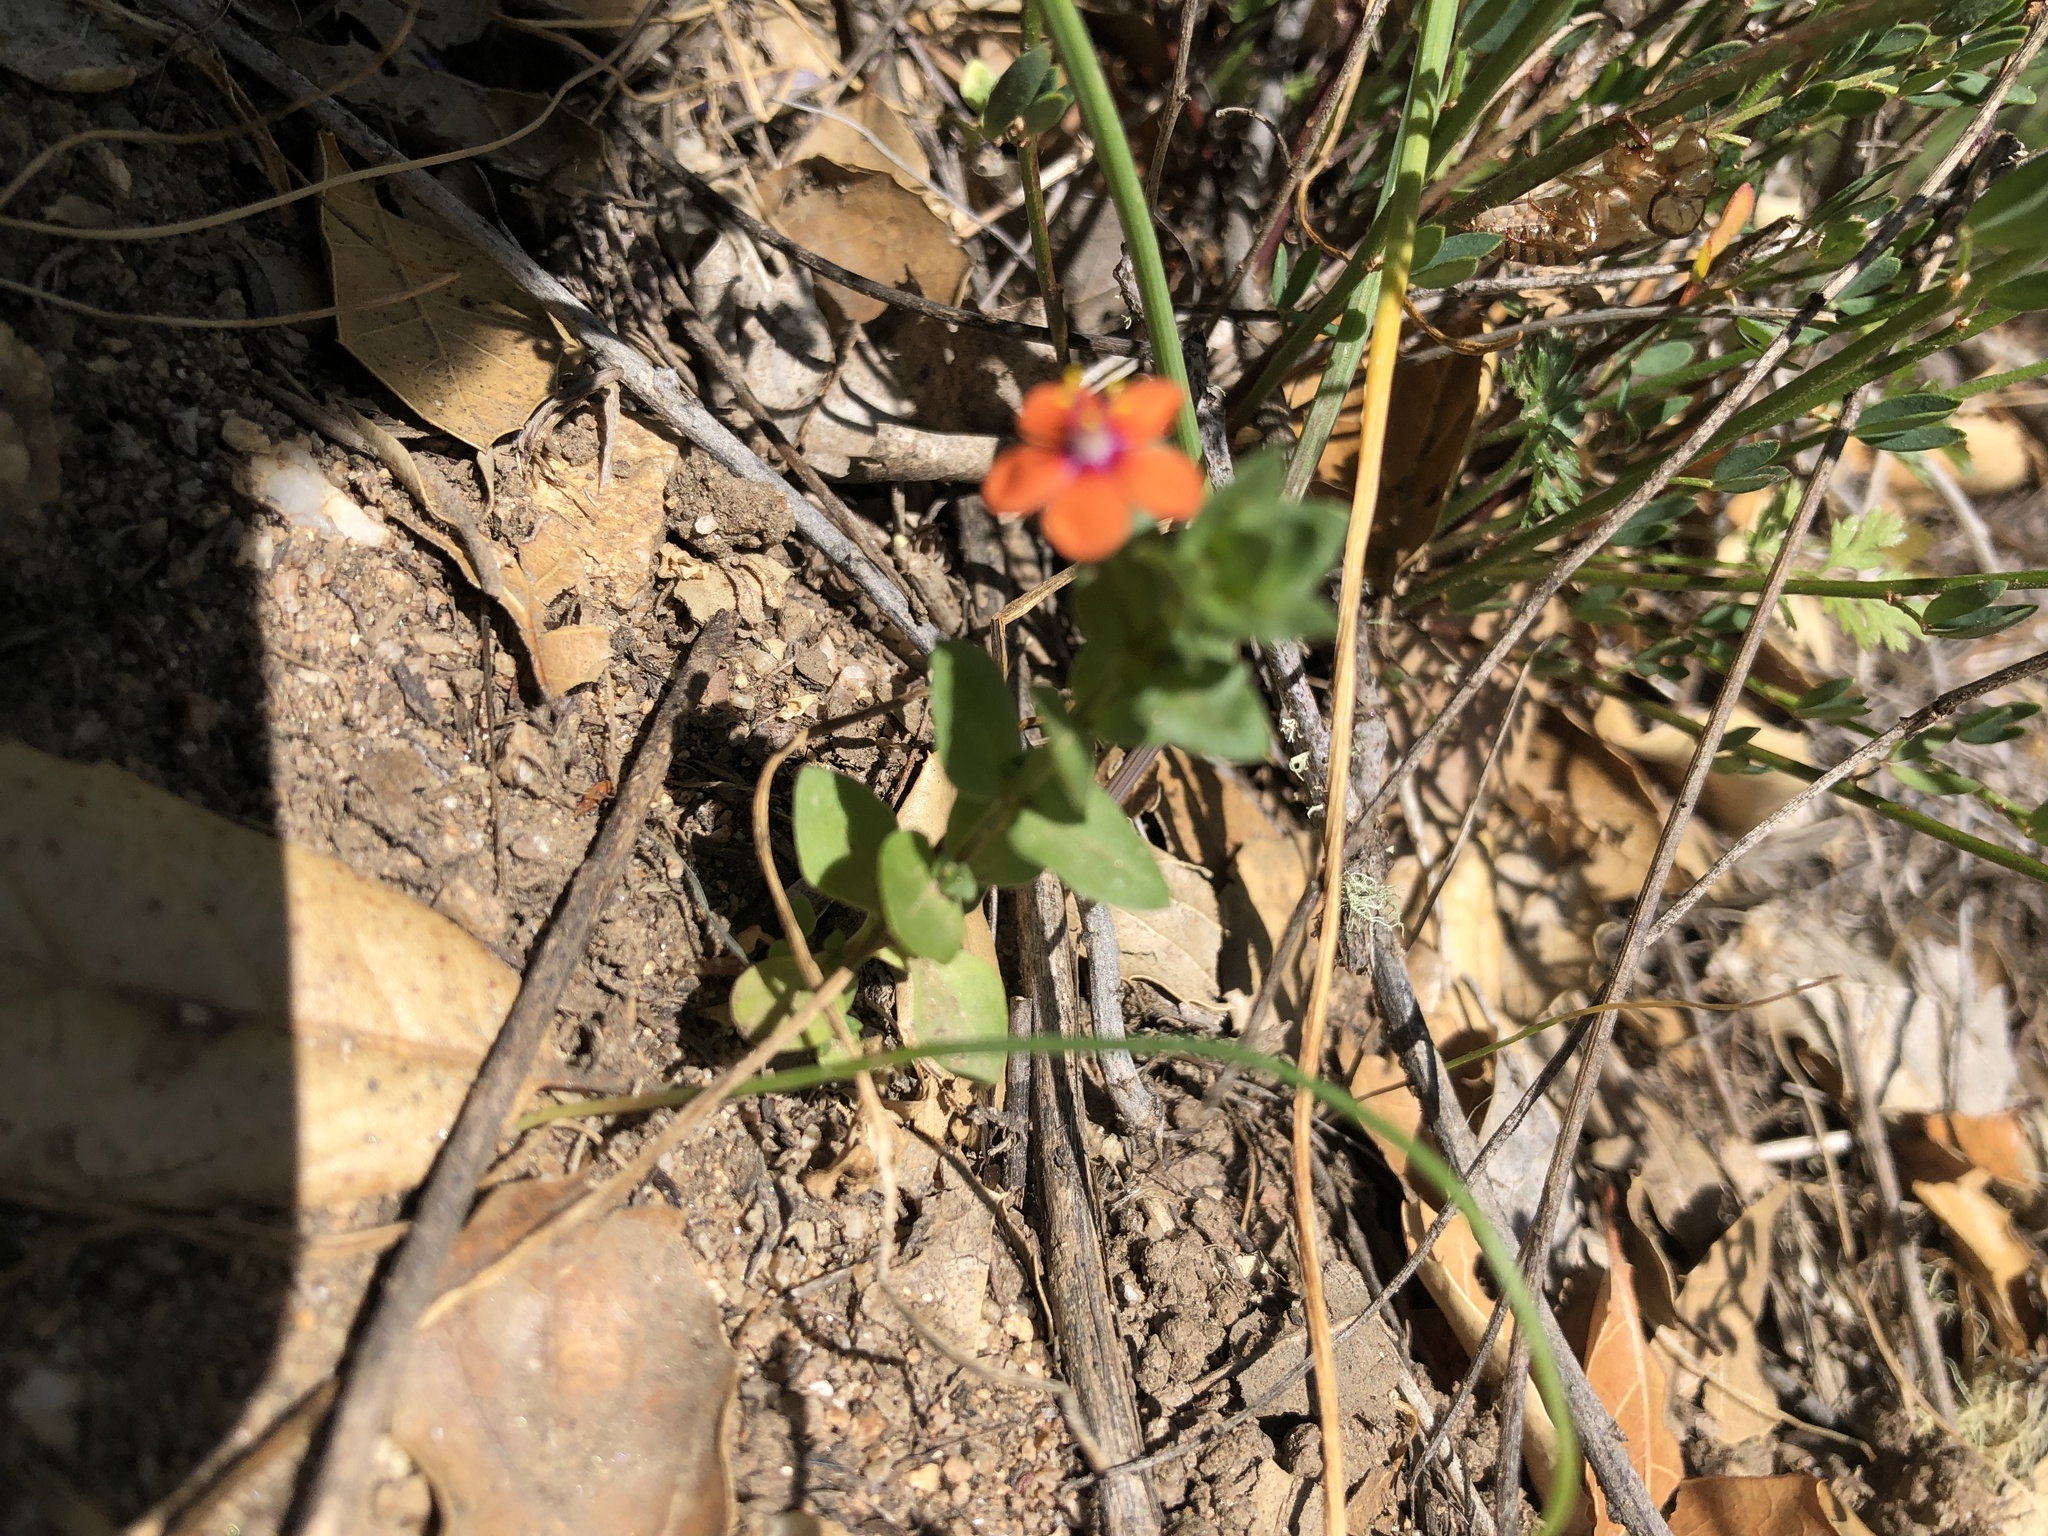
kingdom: Plantae
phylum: Tracheophyta
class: Magnoliopsida
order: Ericales
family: Primulaceae
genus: Lysimachia
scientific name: Lysimachia arvensis
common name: Scarlet pimpernel
